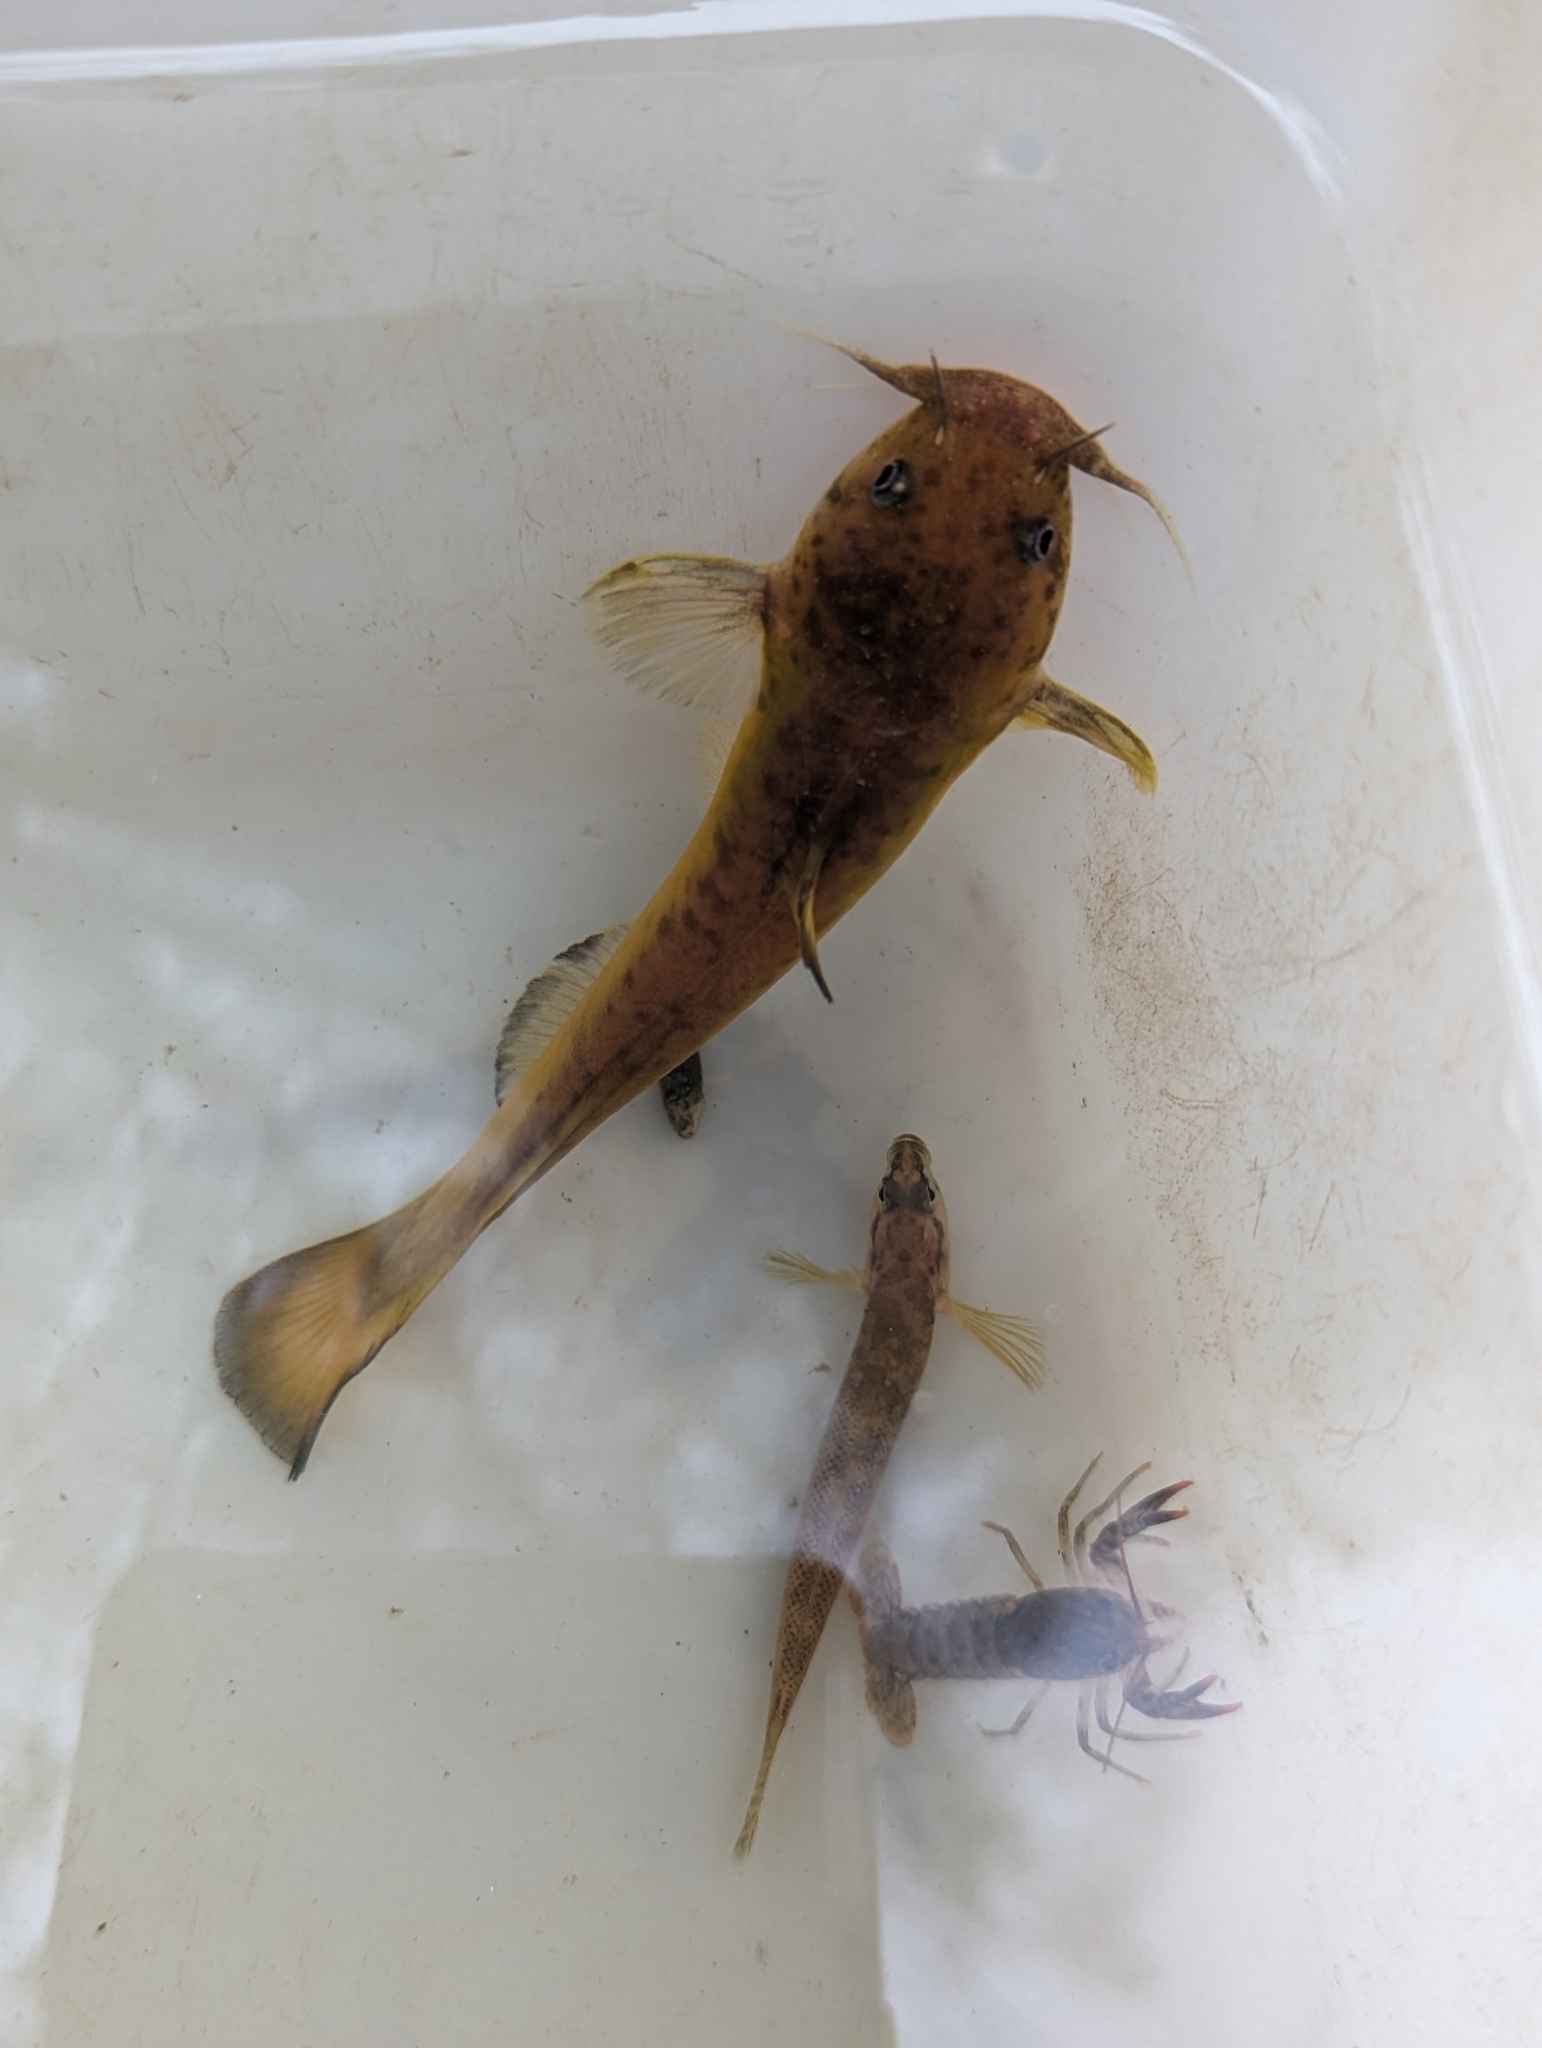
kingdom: Animalia
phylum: Chordata
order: Siluriformes
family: Ictaluridae
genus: Noturus
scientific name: Noturus insignis
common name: Margined madtom
